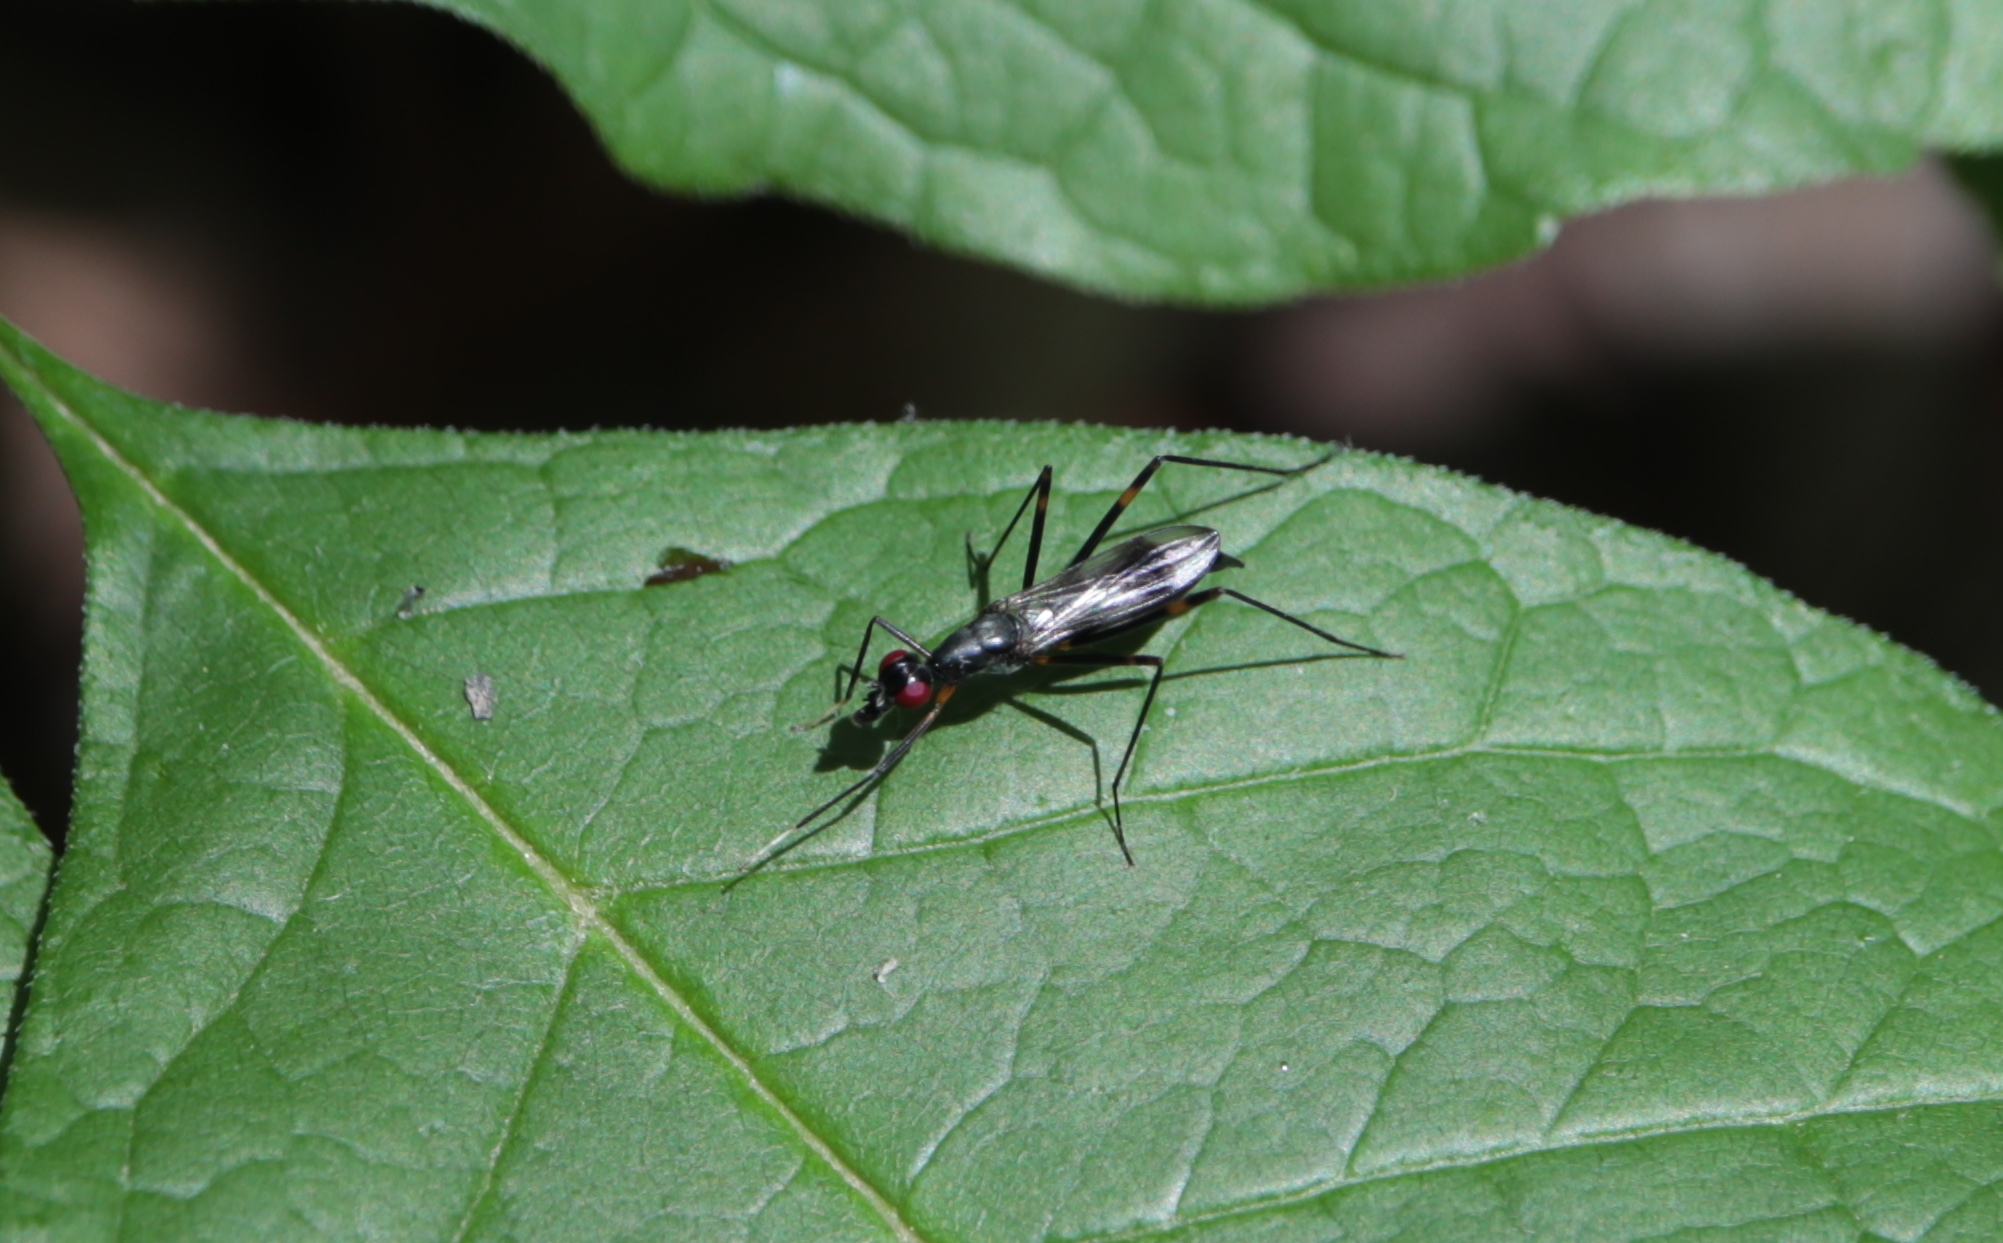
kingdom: Animalia
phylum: Arthropoda
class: Insecta
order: Diptera
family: Micropezidae
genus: Rainieria
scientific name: Rainieria antennaepes
